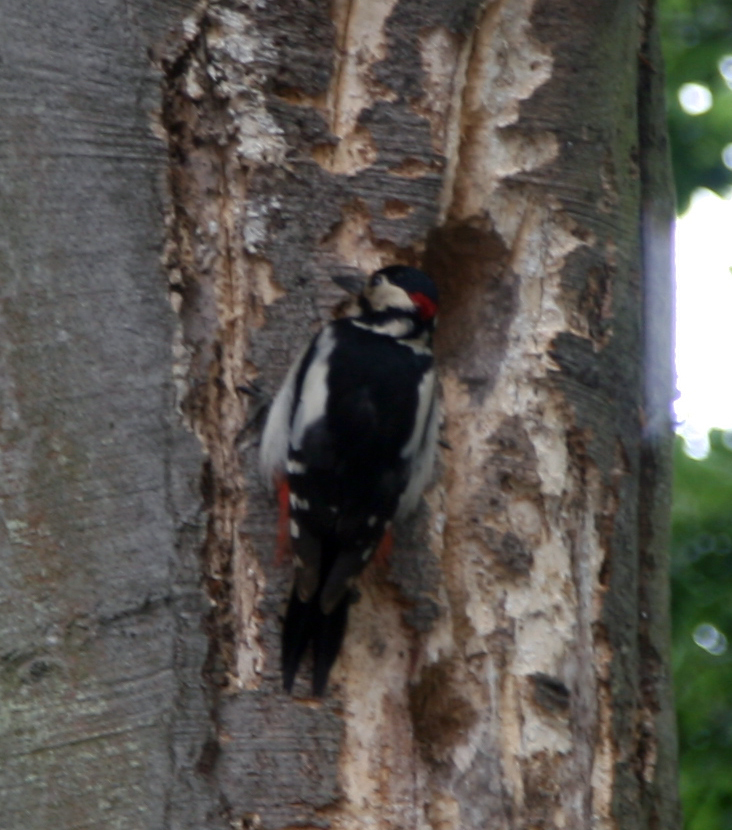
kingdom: Animalia
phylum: Chordata
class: Aves
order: Piciformes
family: Picidae
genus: Dendrocopos
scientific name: Dendrocopos major
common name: Great spotted woodpecker
